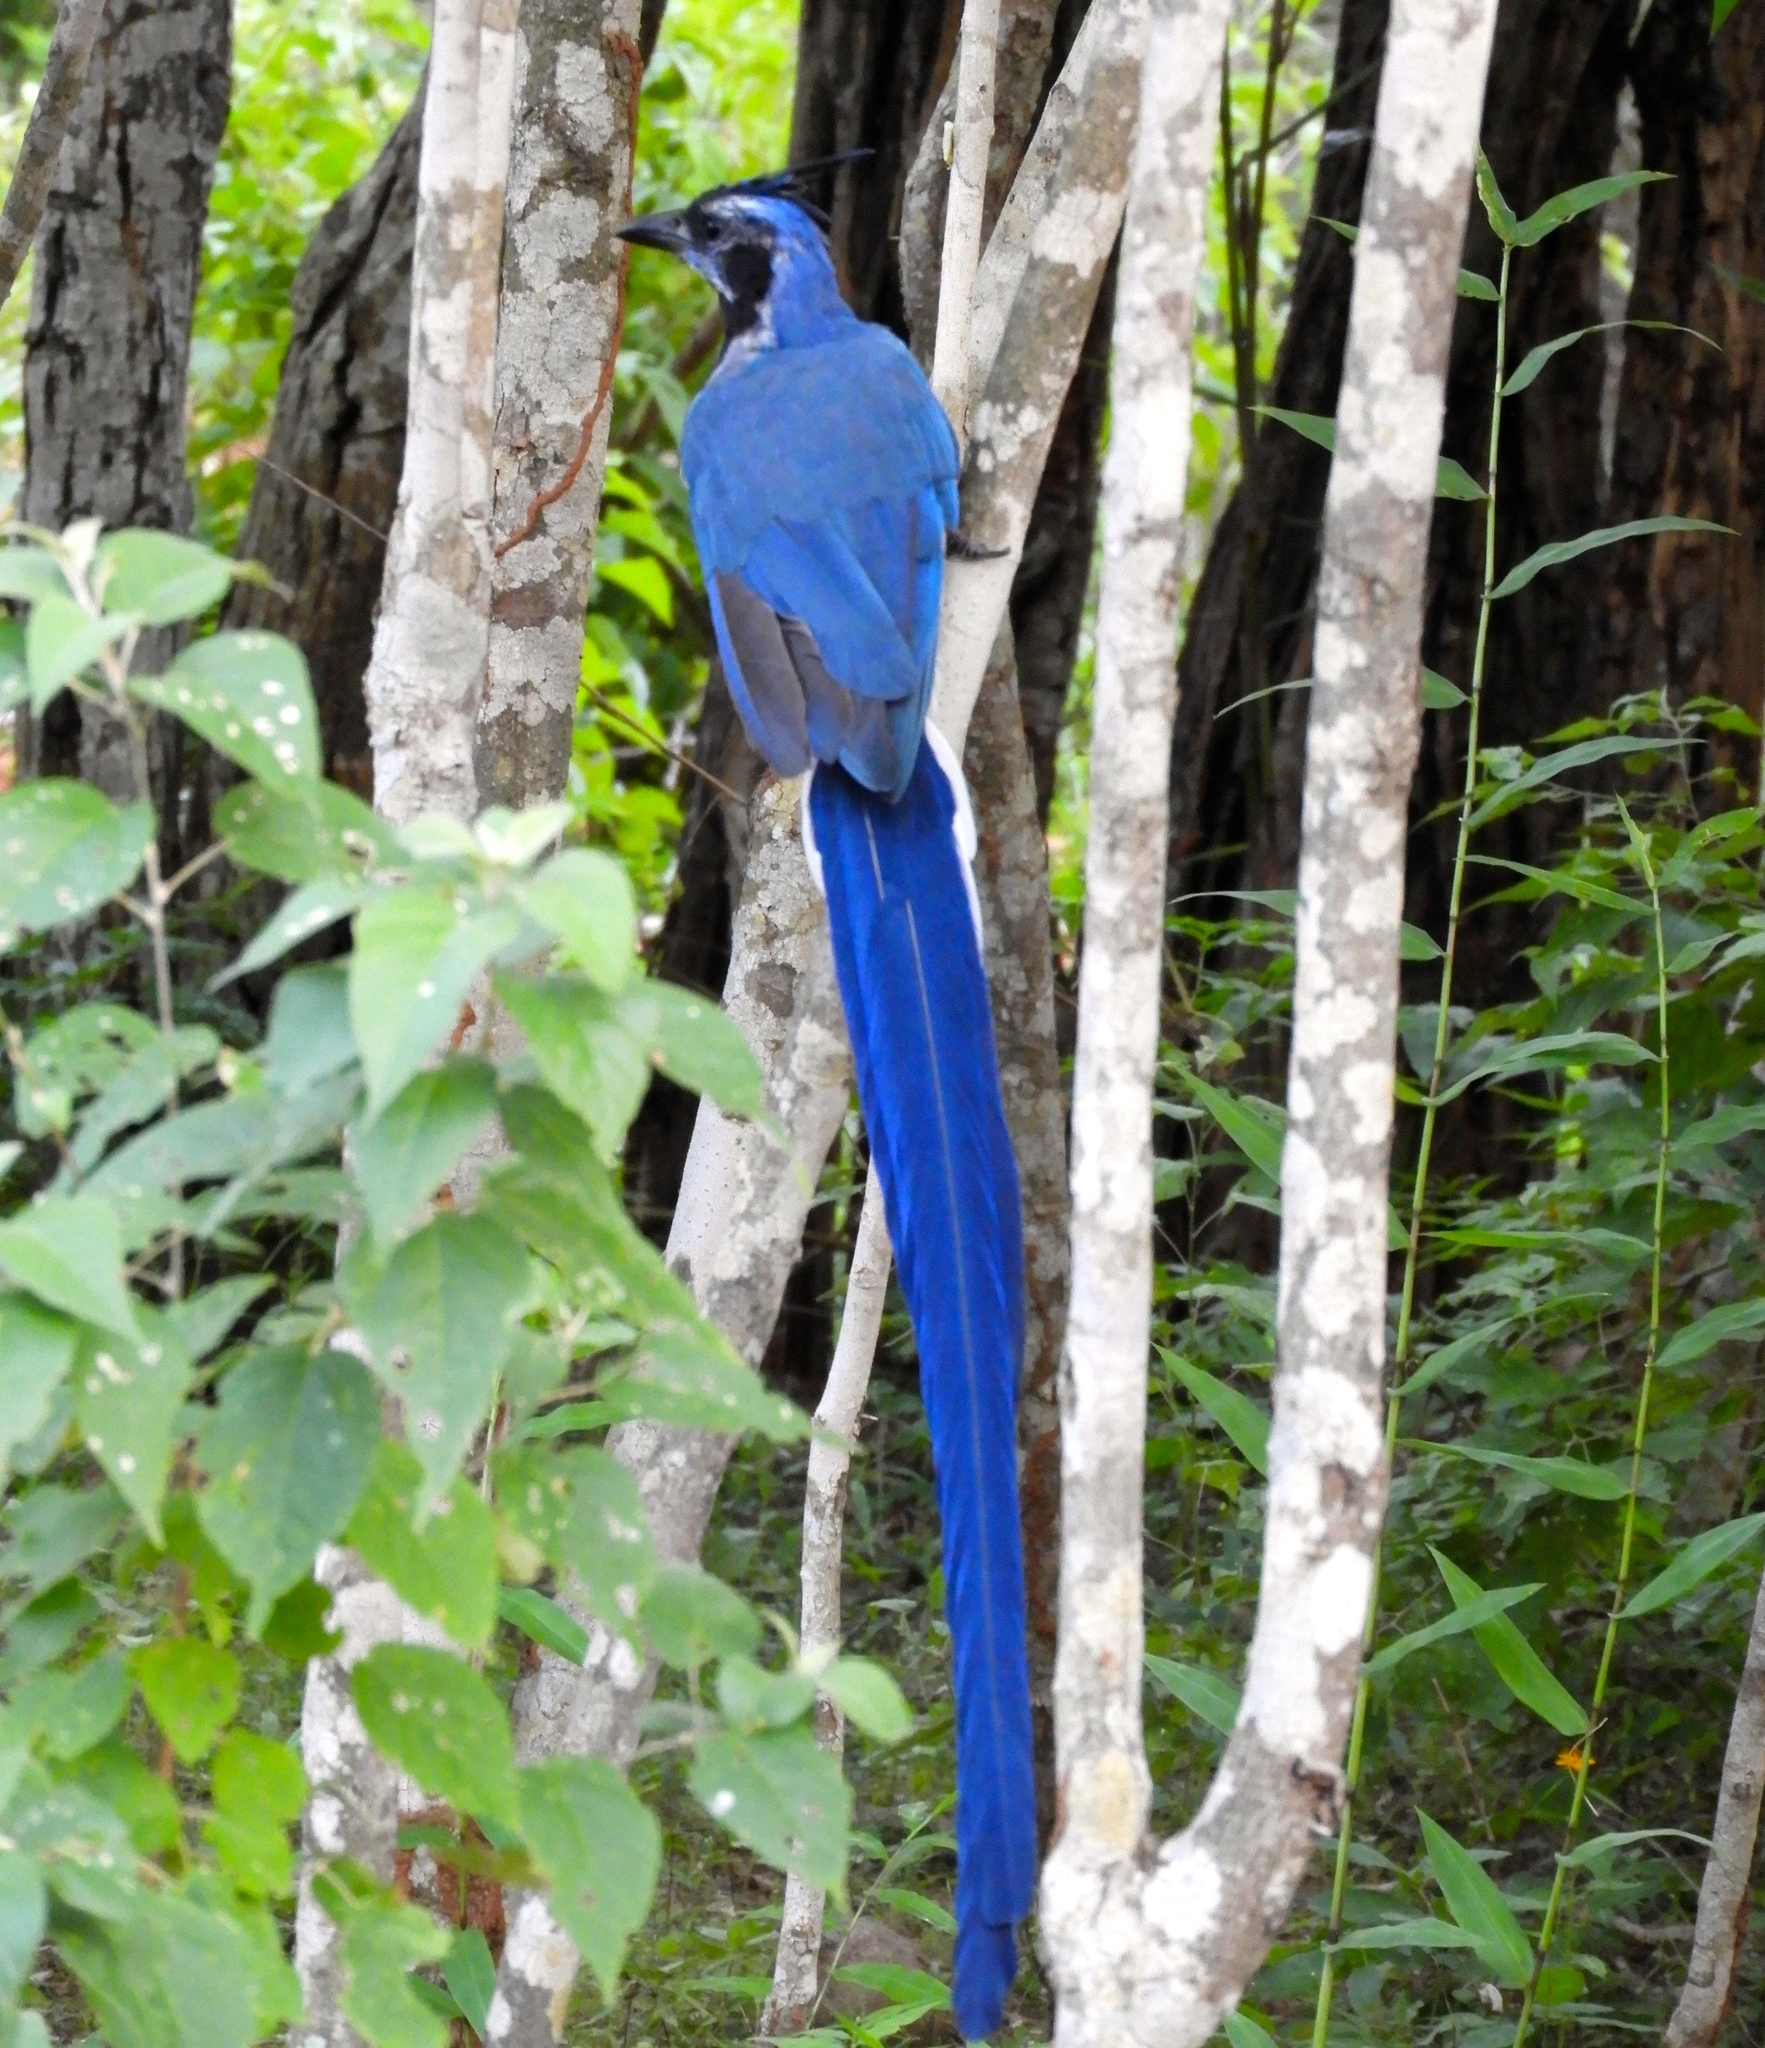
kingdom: Animalia
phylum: Chordata
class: Aves
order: Passeriformes
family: Corvidae
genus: Calocitta
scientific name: Calocitta colliei
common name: Black-throated magpie-jay
